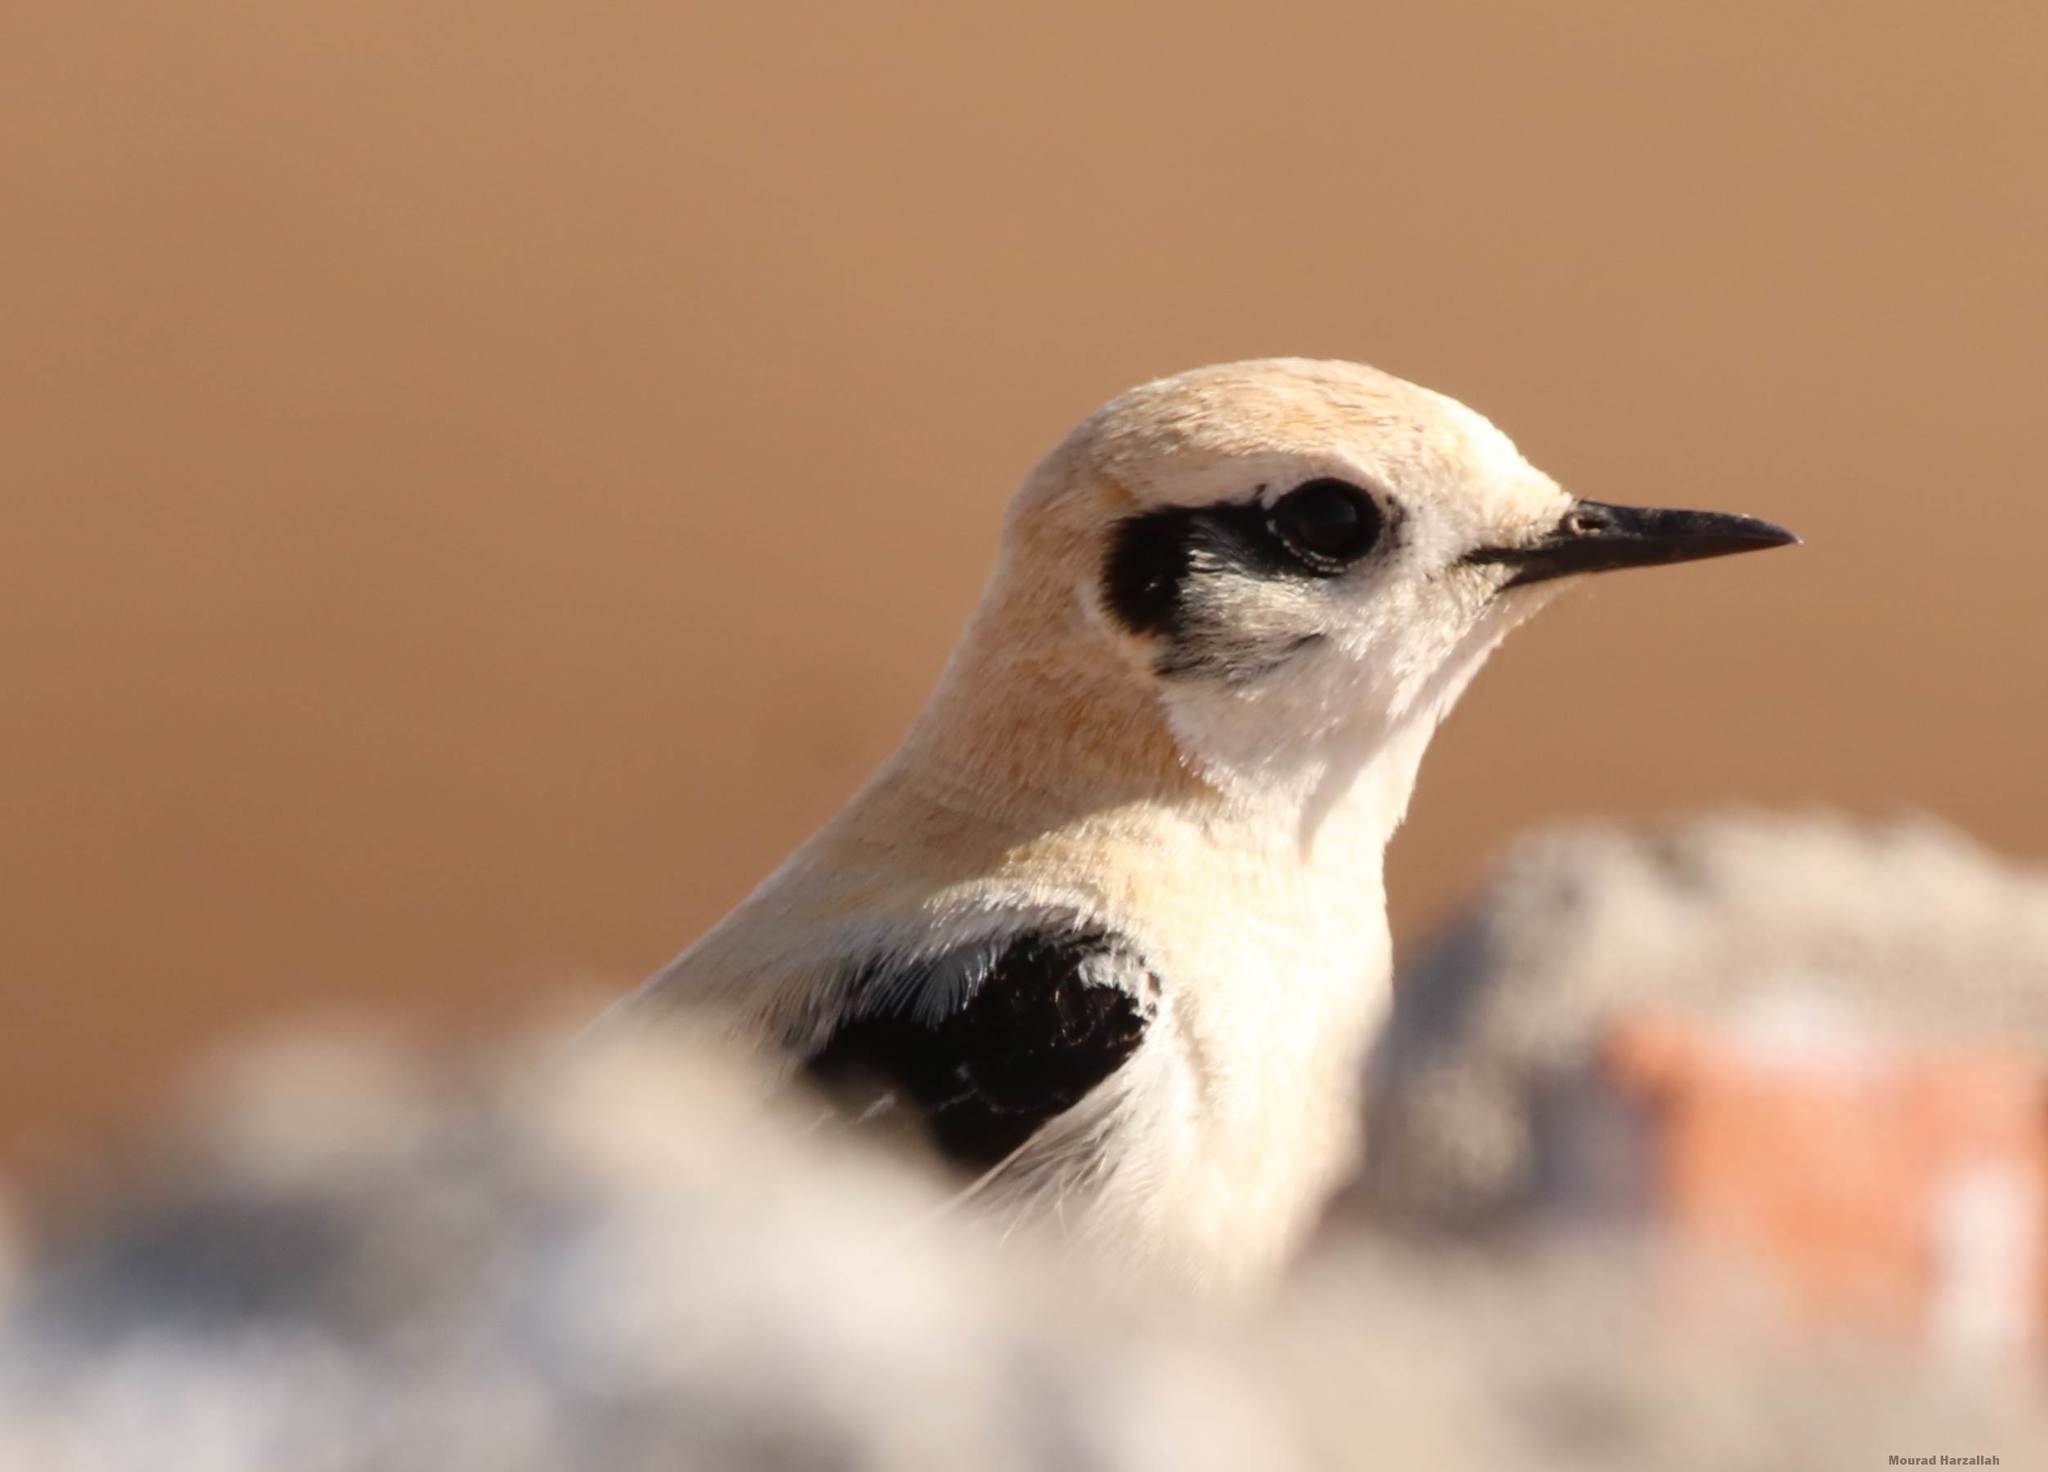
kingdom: Animalia
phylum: Chordata
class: Aves
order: Passeriformes
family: Muscicapidae
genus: Oenanthe
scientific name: Oenanthe hispanica
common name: Black-eared wheatear
